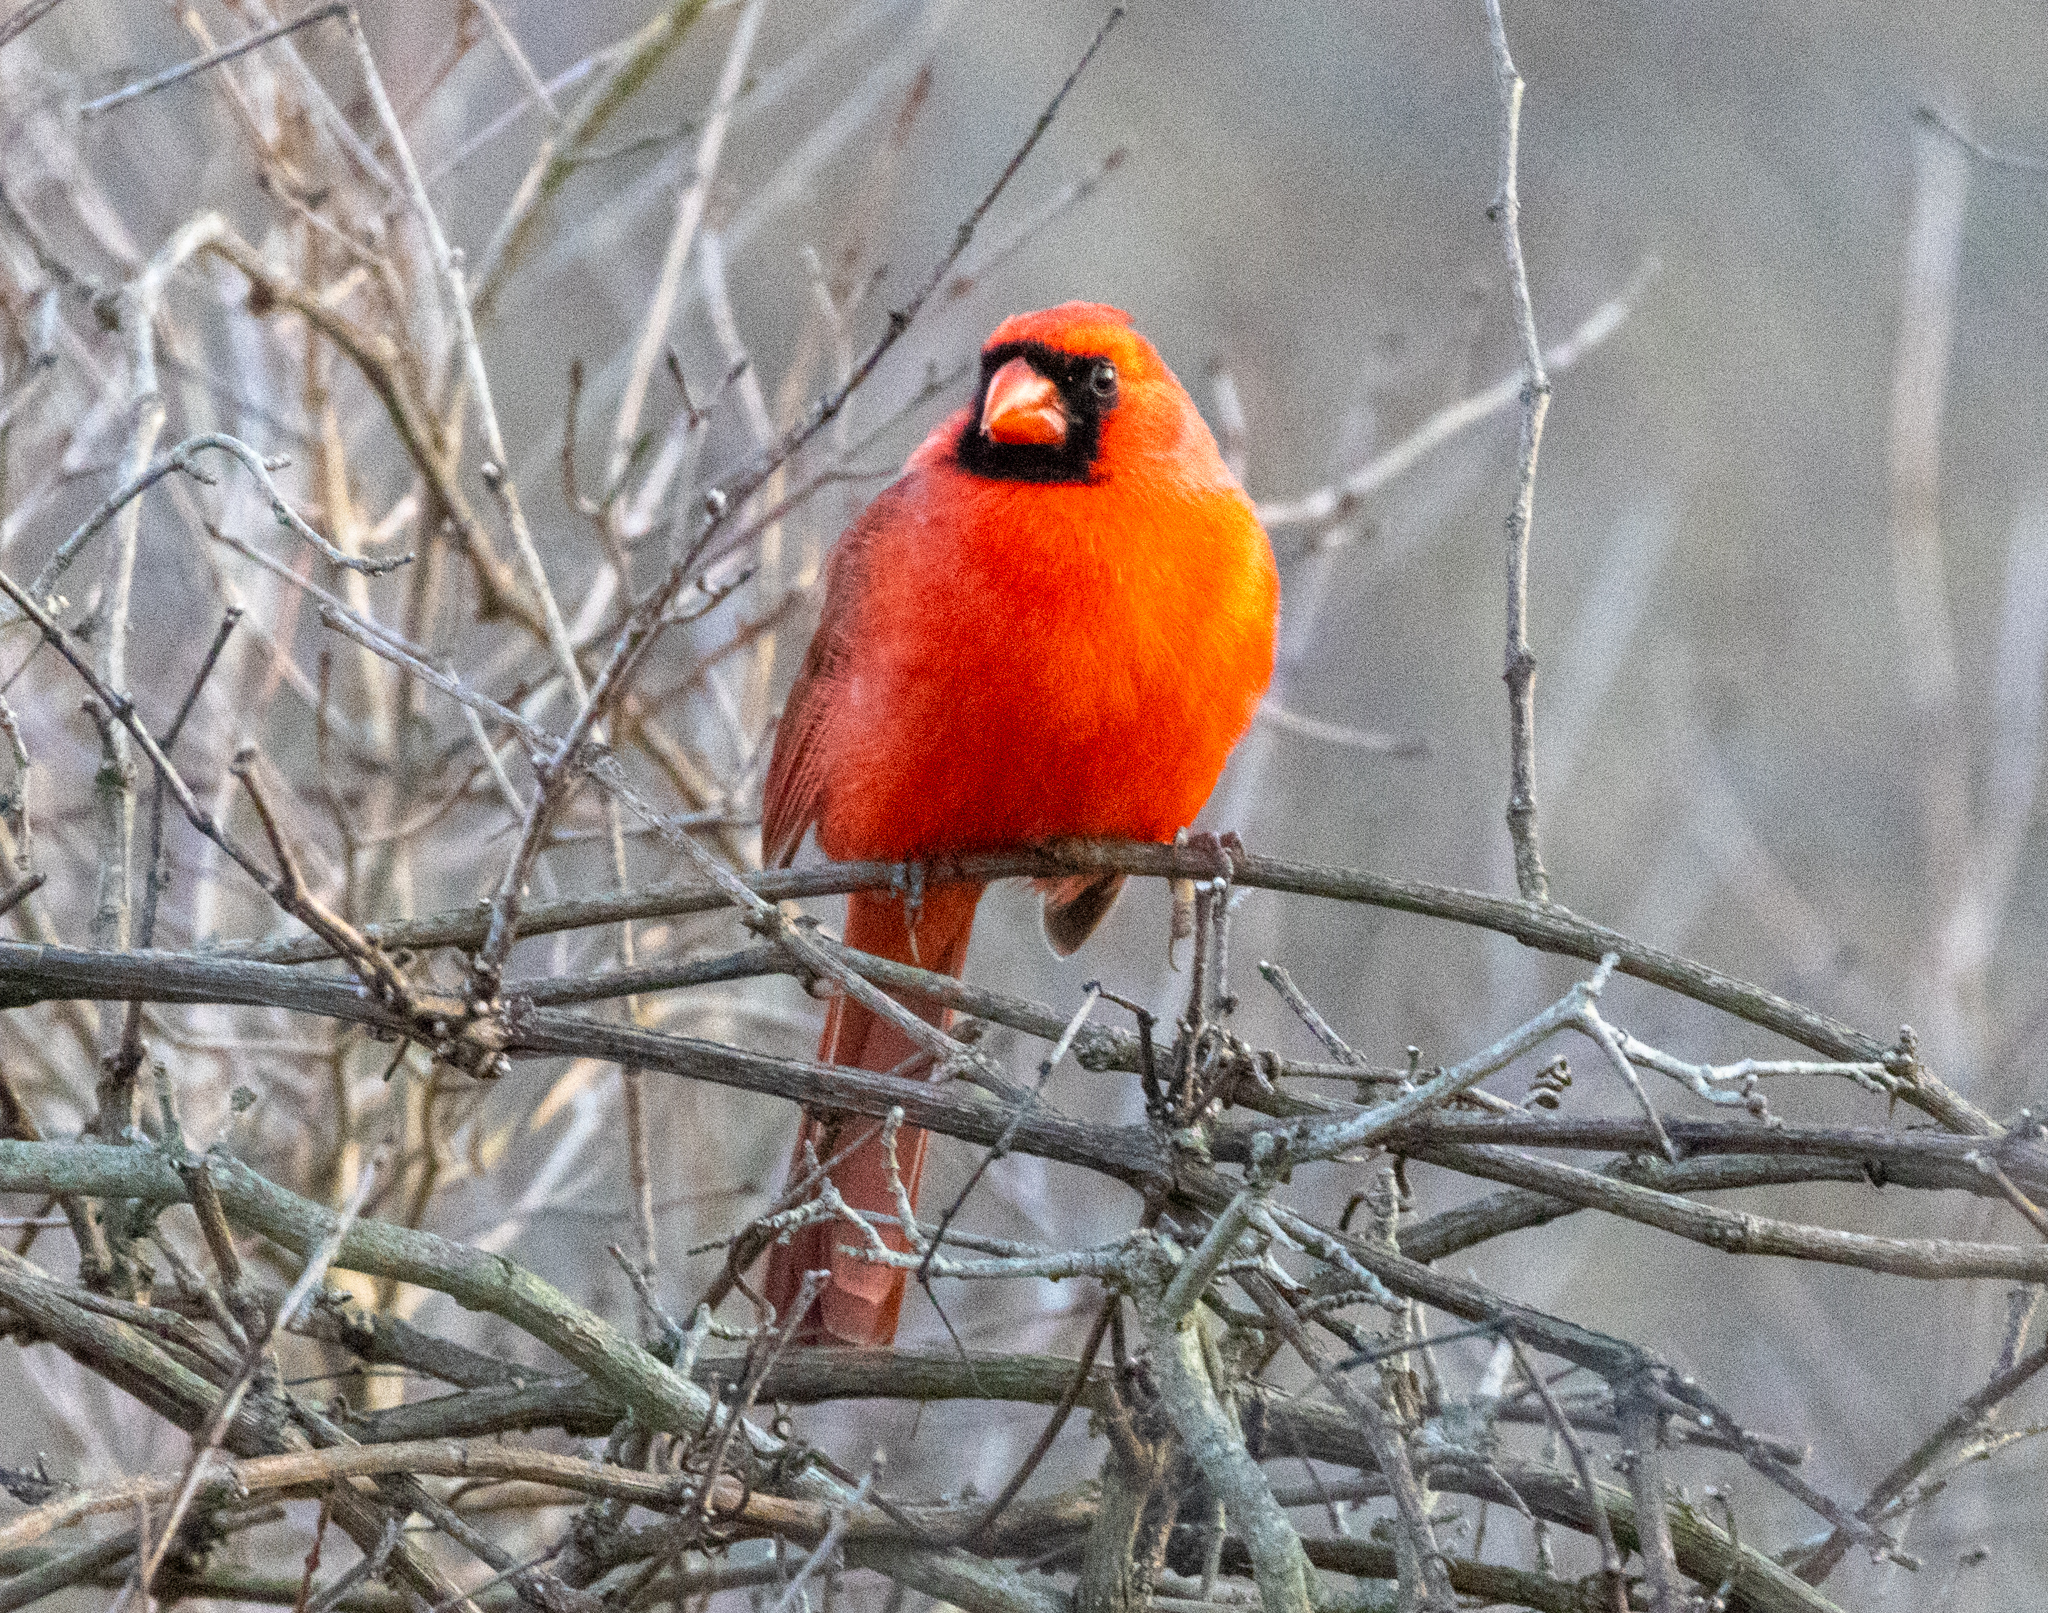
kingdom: Animalia
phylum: Chordata
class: Aves
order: Passeriformes
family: Cardinalidae
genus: Cardinalis
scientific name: Cardinalis cardinalis
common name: Northern cardinal
